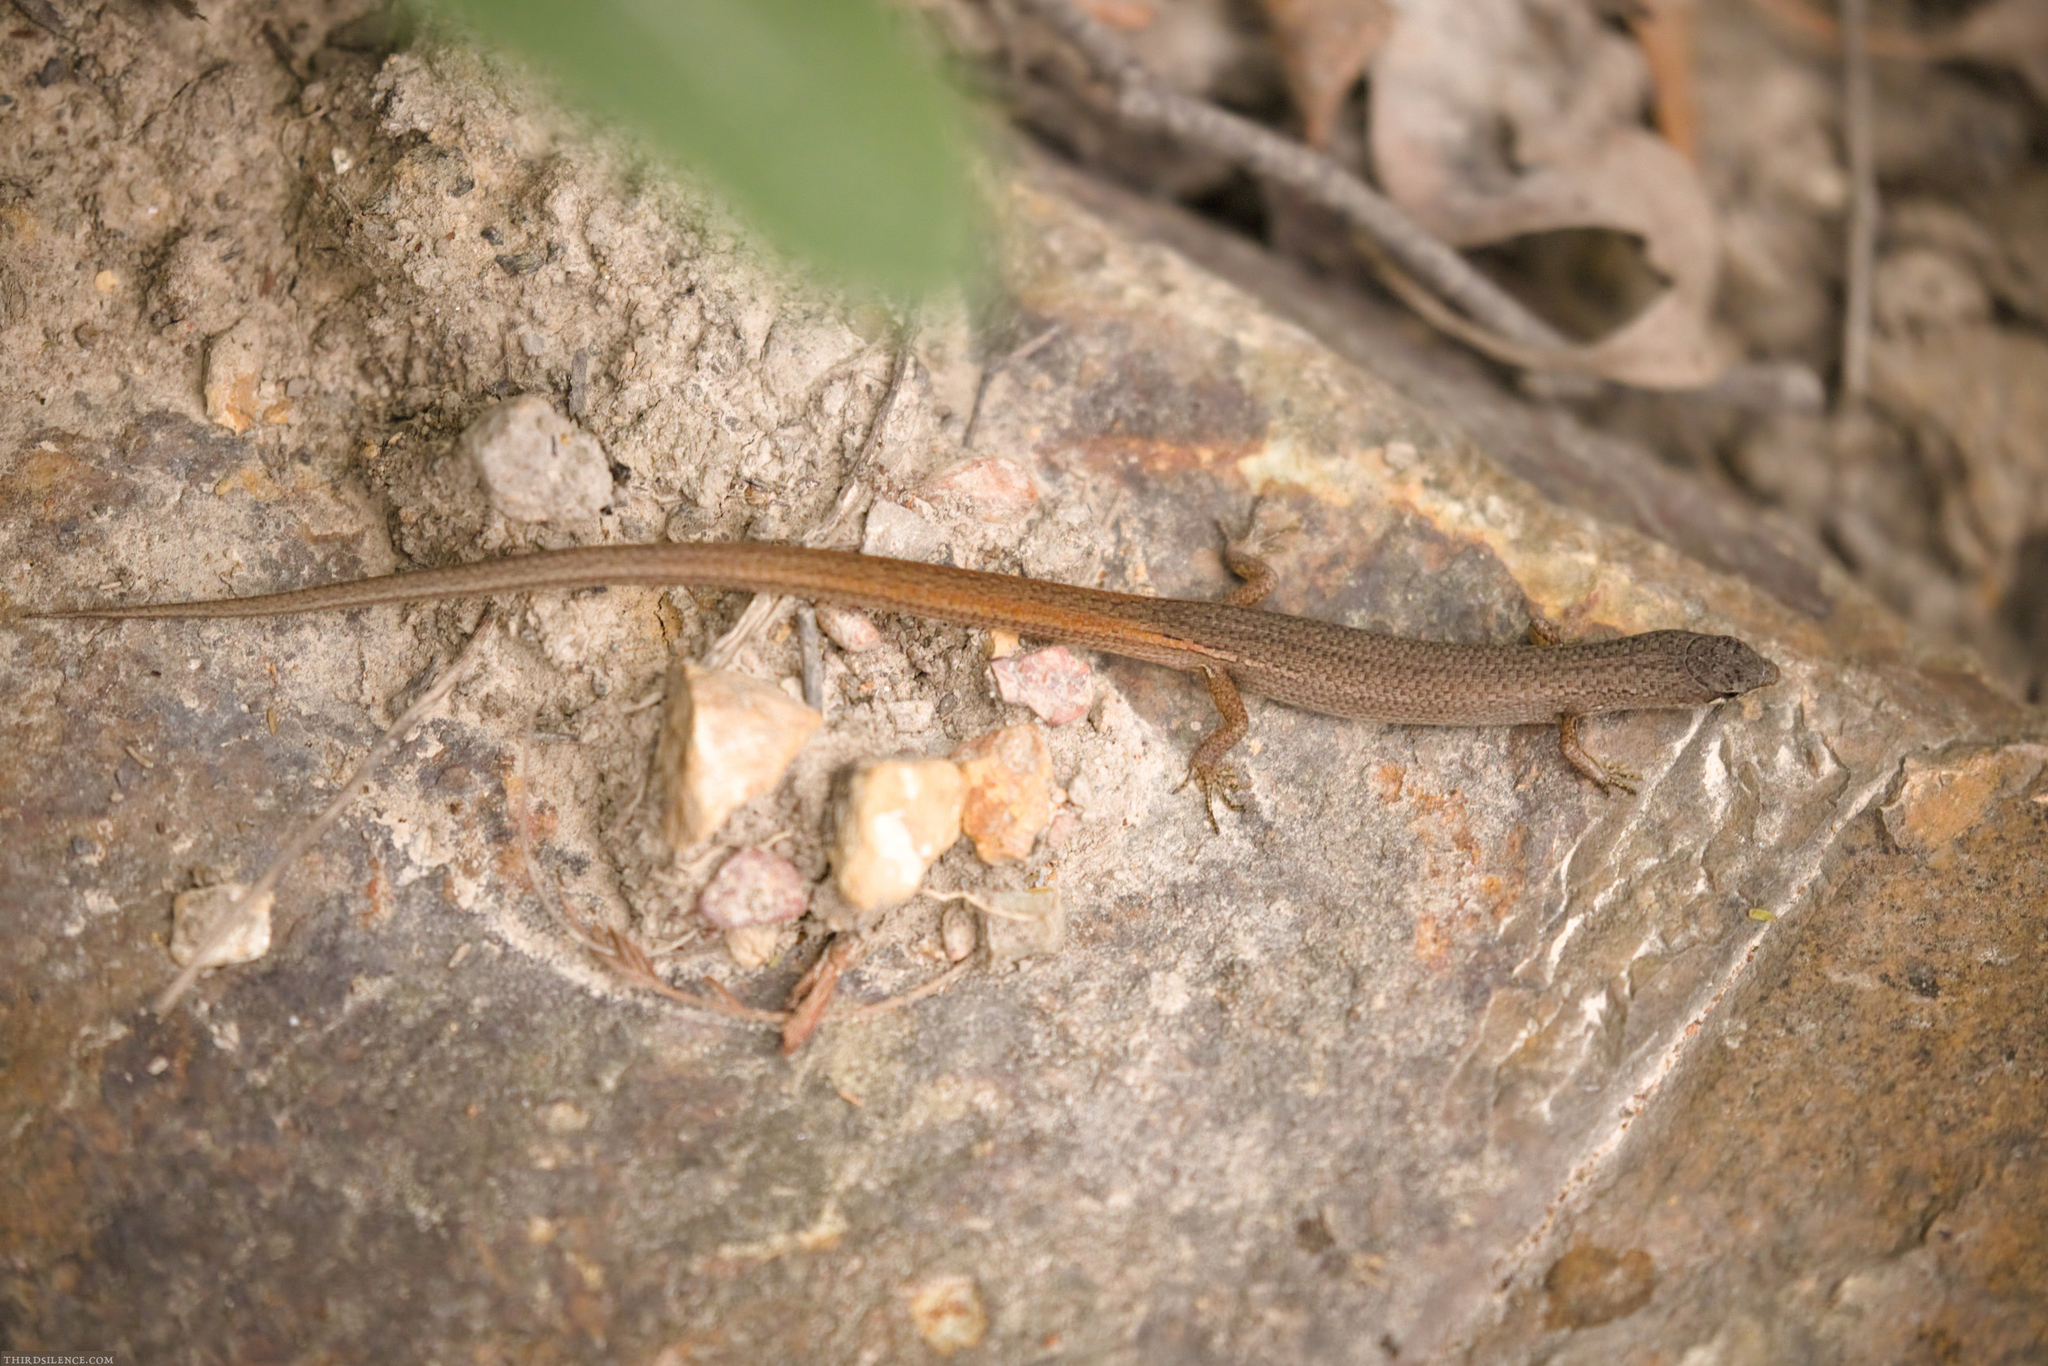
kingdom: Animalia
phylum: Chordata
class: Squamata
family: Scincidae
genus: Saproscincus
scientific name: Saproscincus mustelinus
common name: Southern weasel skink
